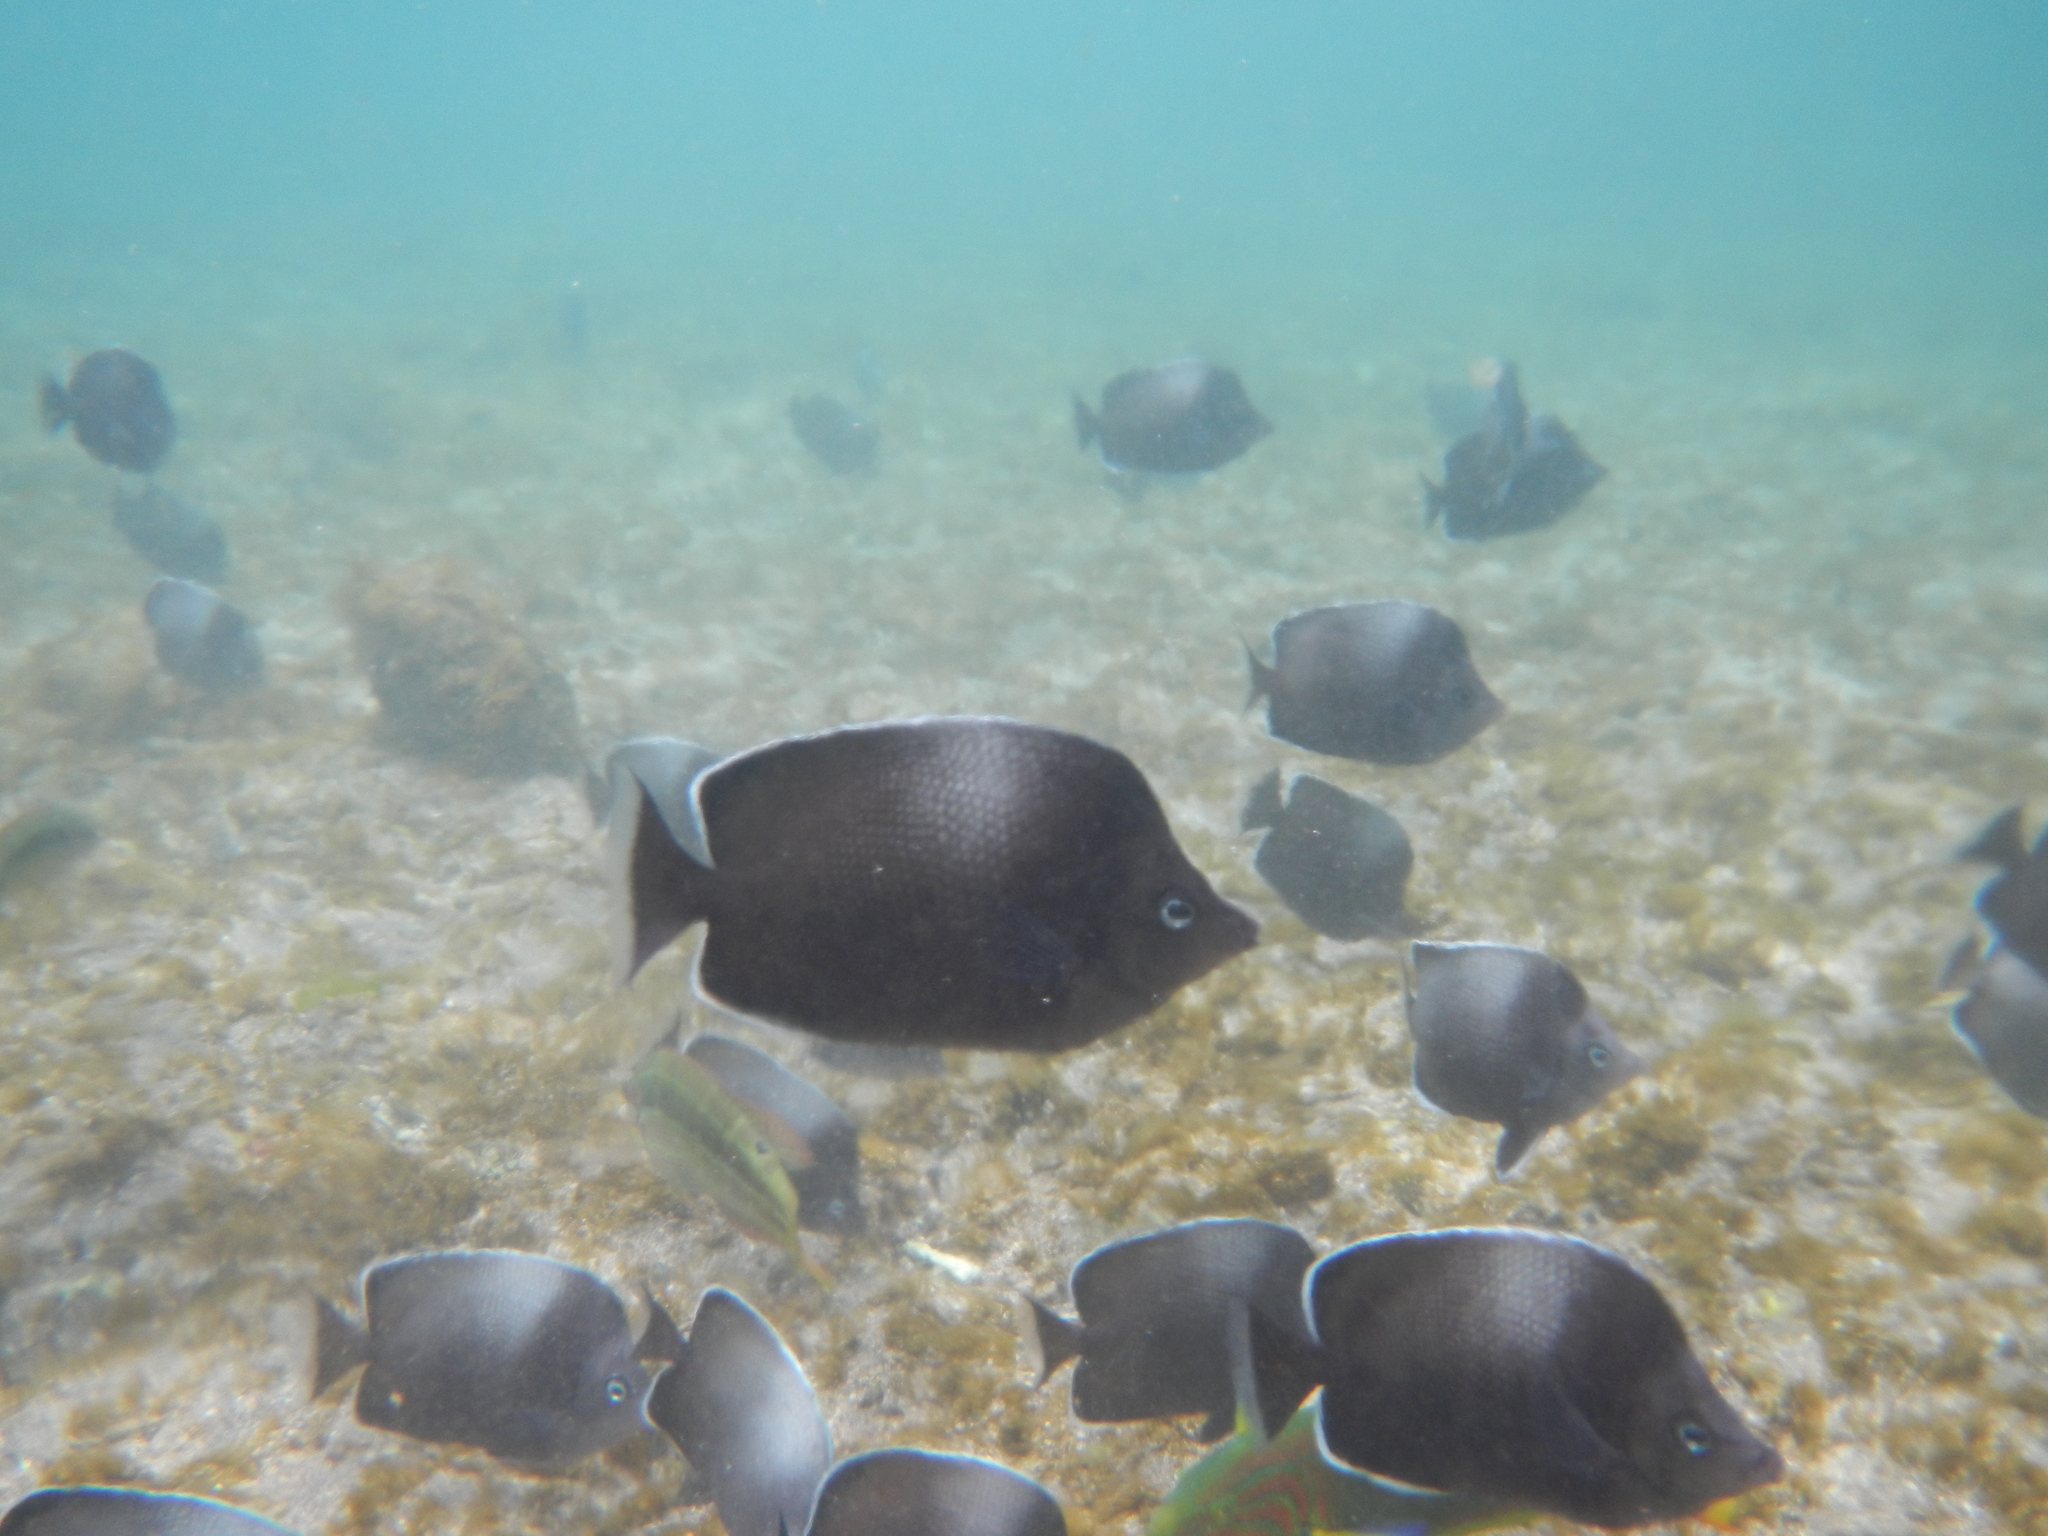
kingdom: Animalia
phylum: Chordata
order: Perciformes
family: Chaetodontidae
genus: Chaetodon
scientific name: Chaetodon litus
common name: Easter island butterflyfish
